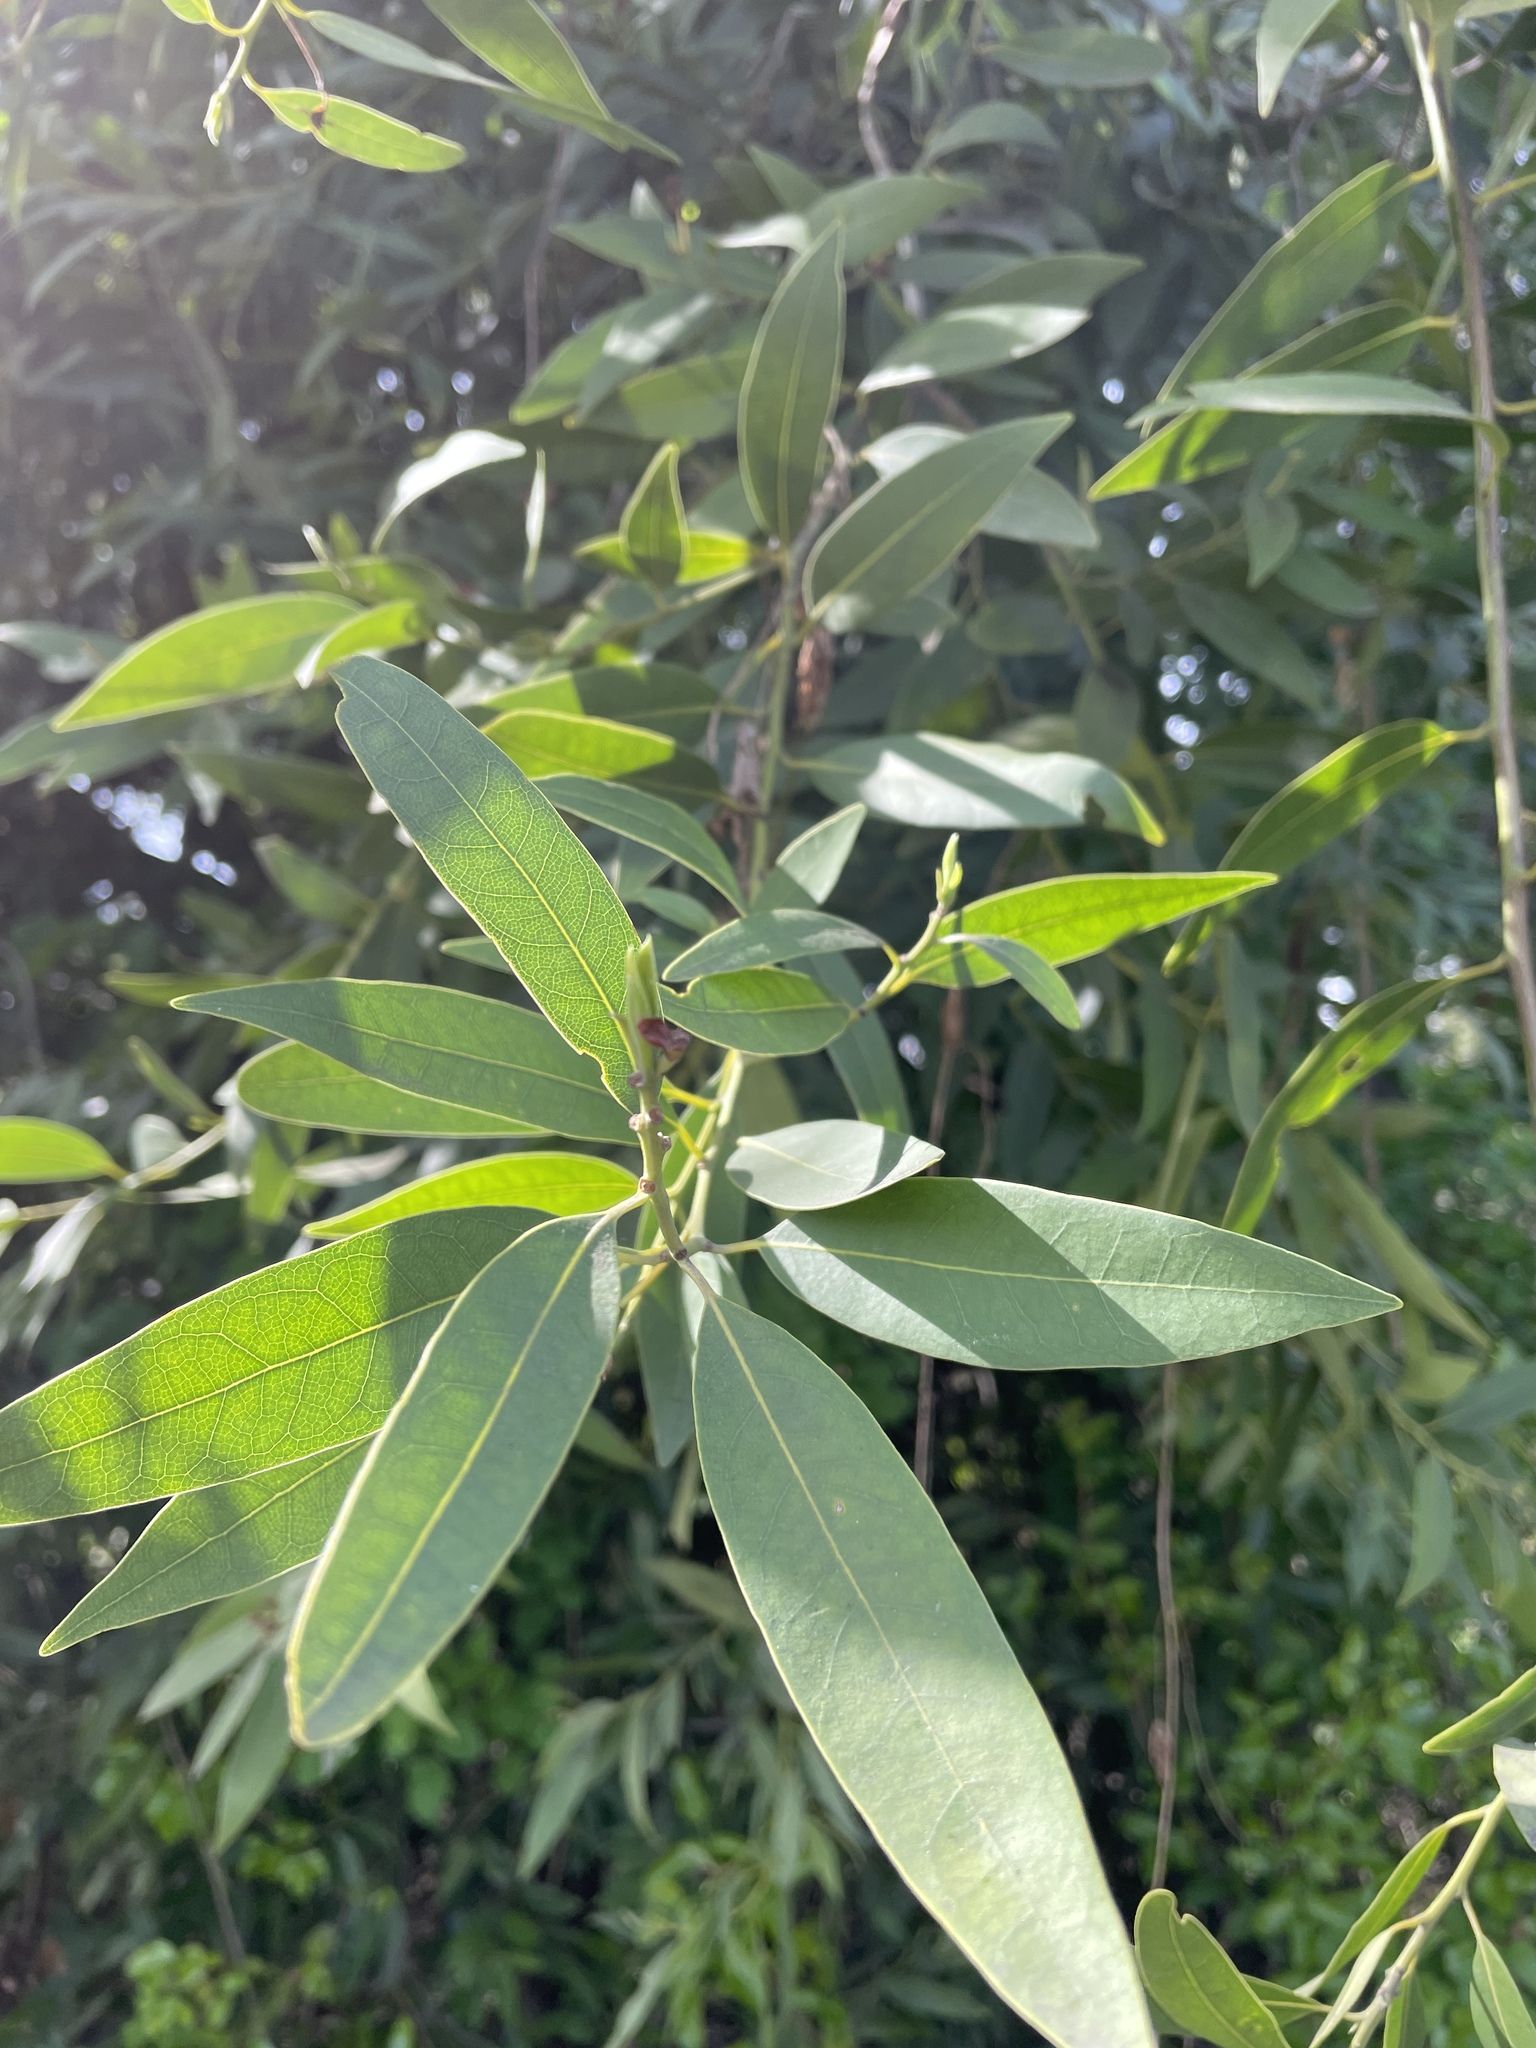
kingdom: Plantae
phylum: Tracheophyta
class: Magnoliopsida
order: Laurales
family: Lauraceae
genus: Umbellularia
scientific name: Umbellularia californica
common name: California bay
